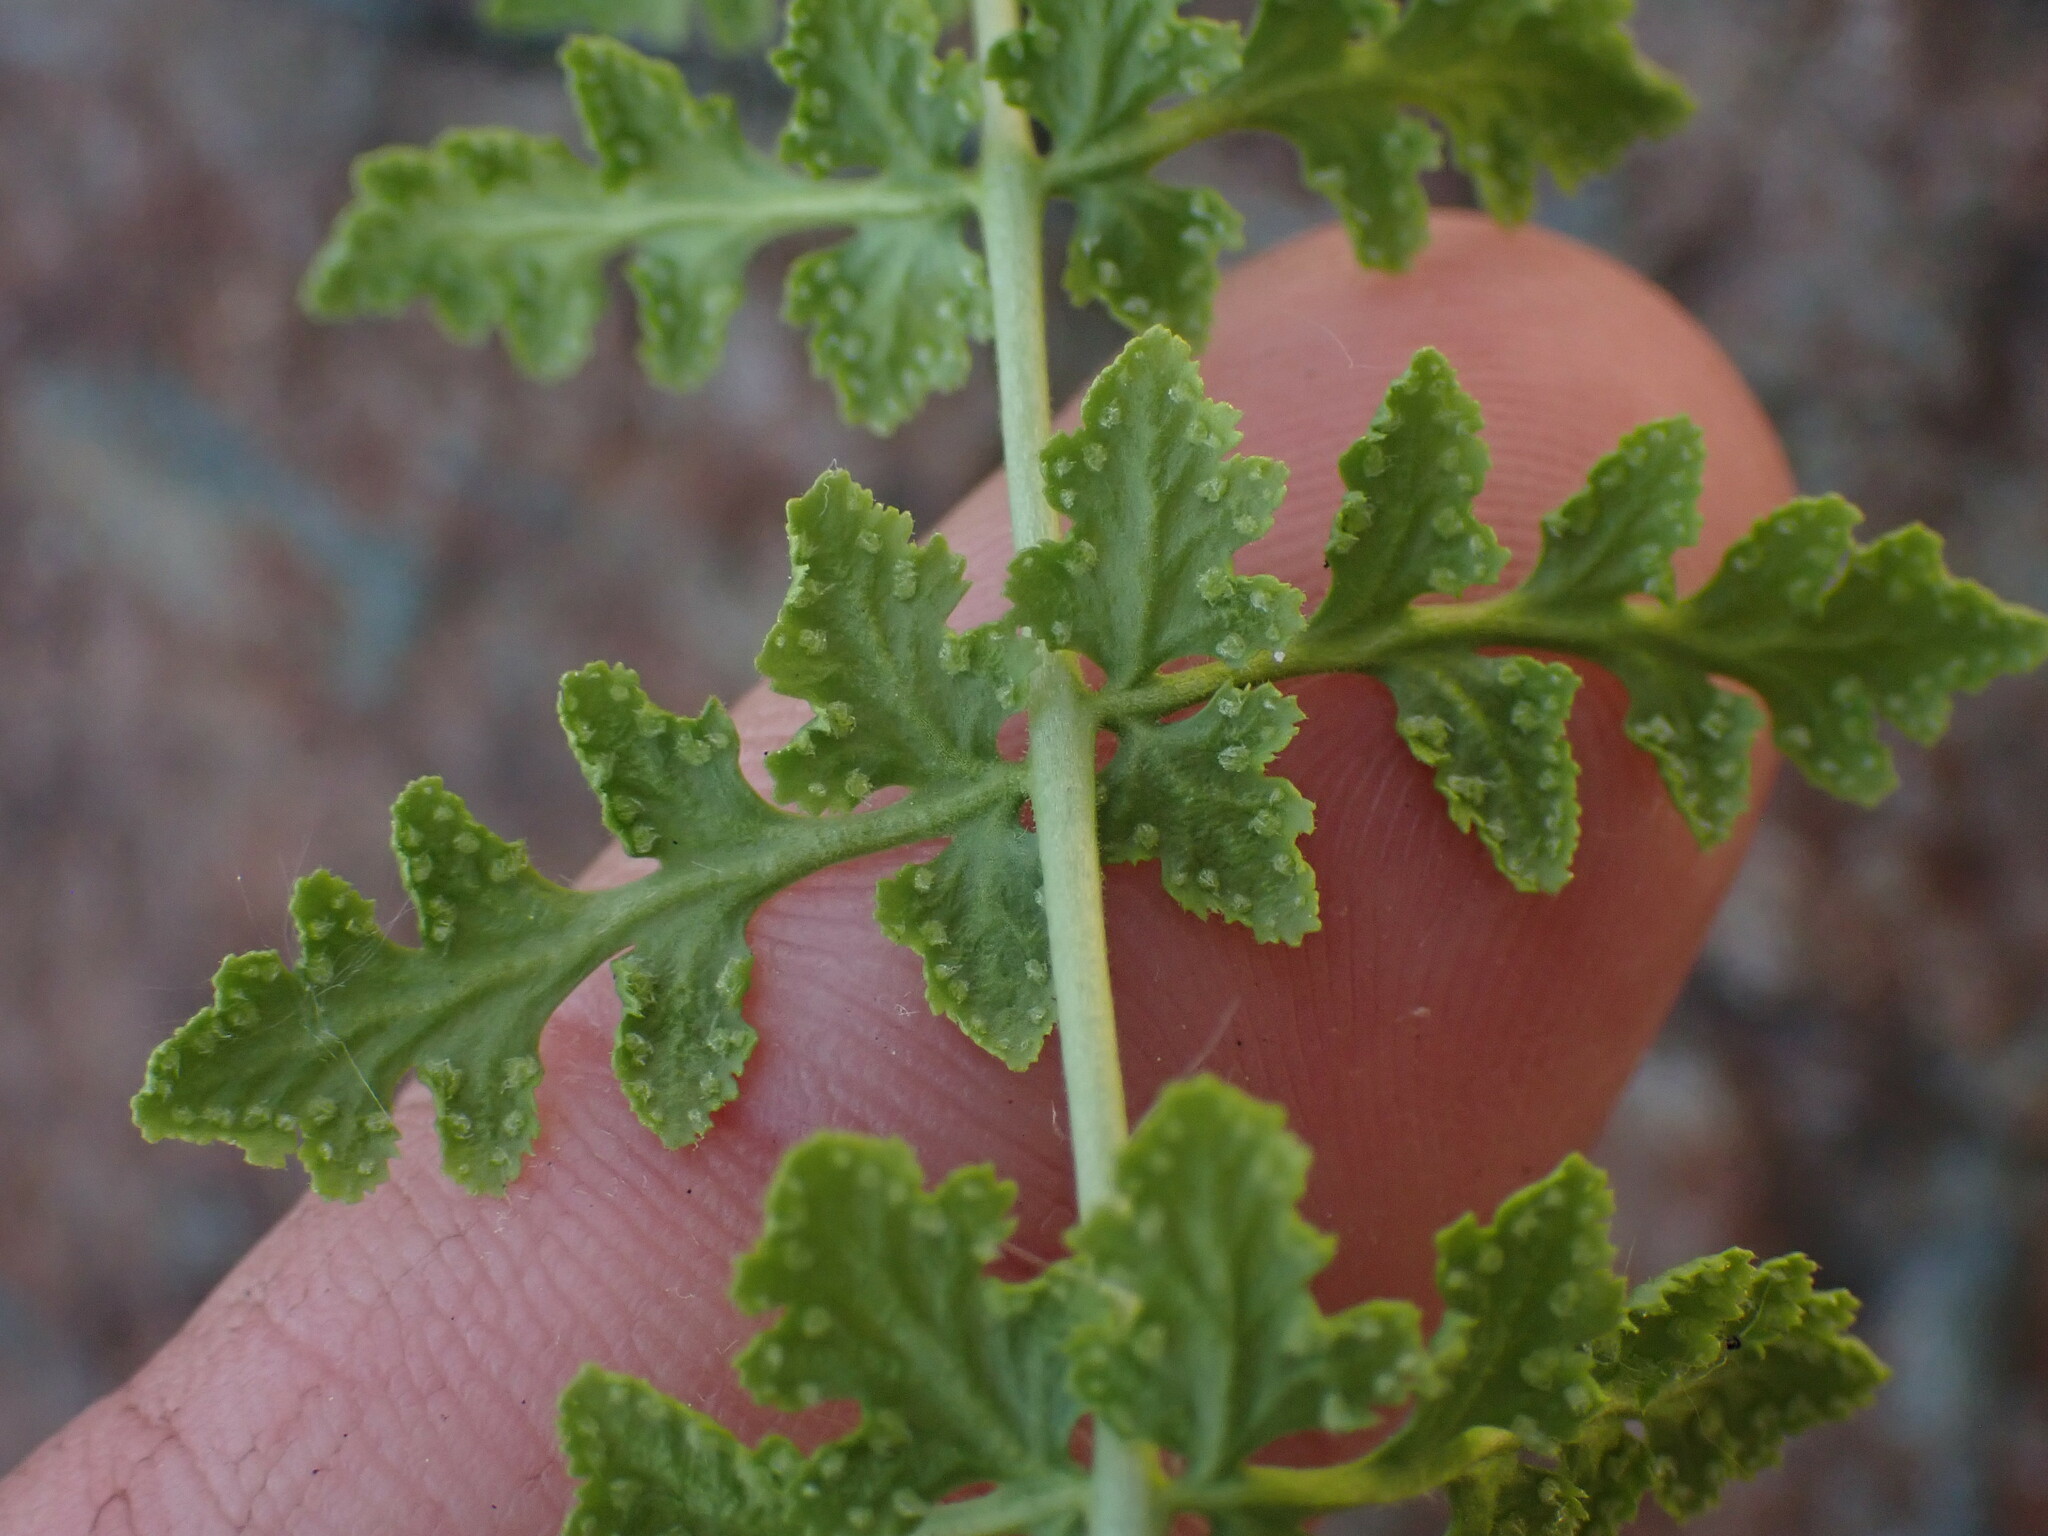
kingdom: Plantae
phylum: Tracheophyta
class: Polypodiopsida
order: Polypodiales
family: Woodsiaceae
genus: Physematium
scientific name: Physematium oreganum
